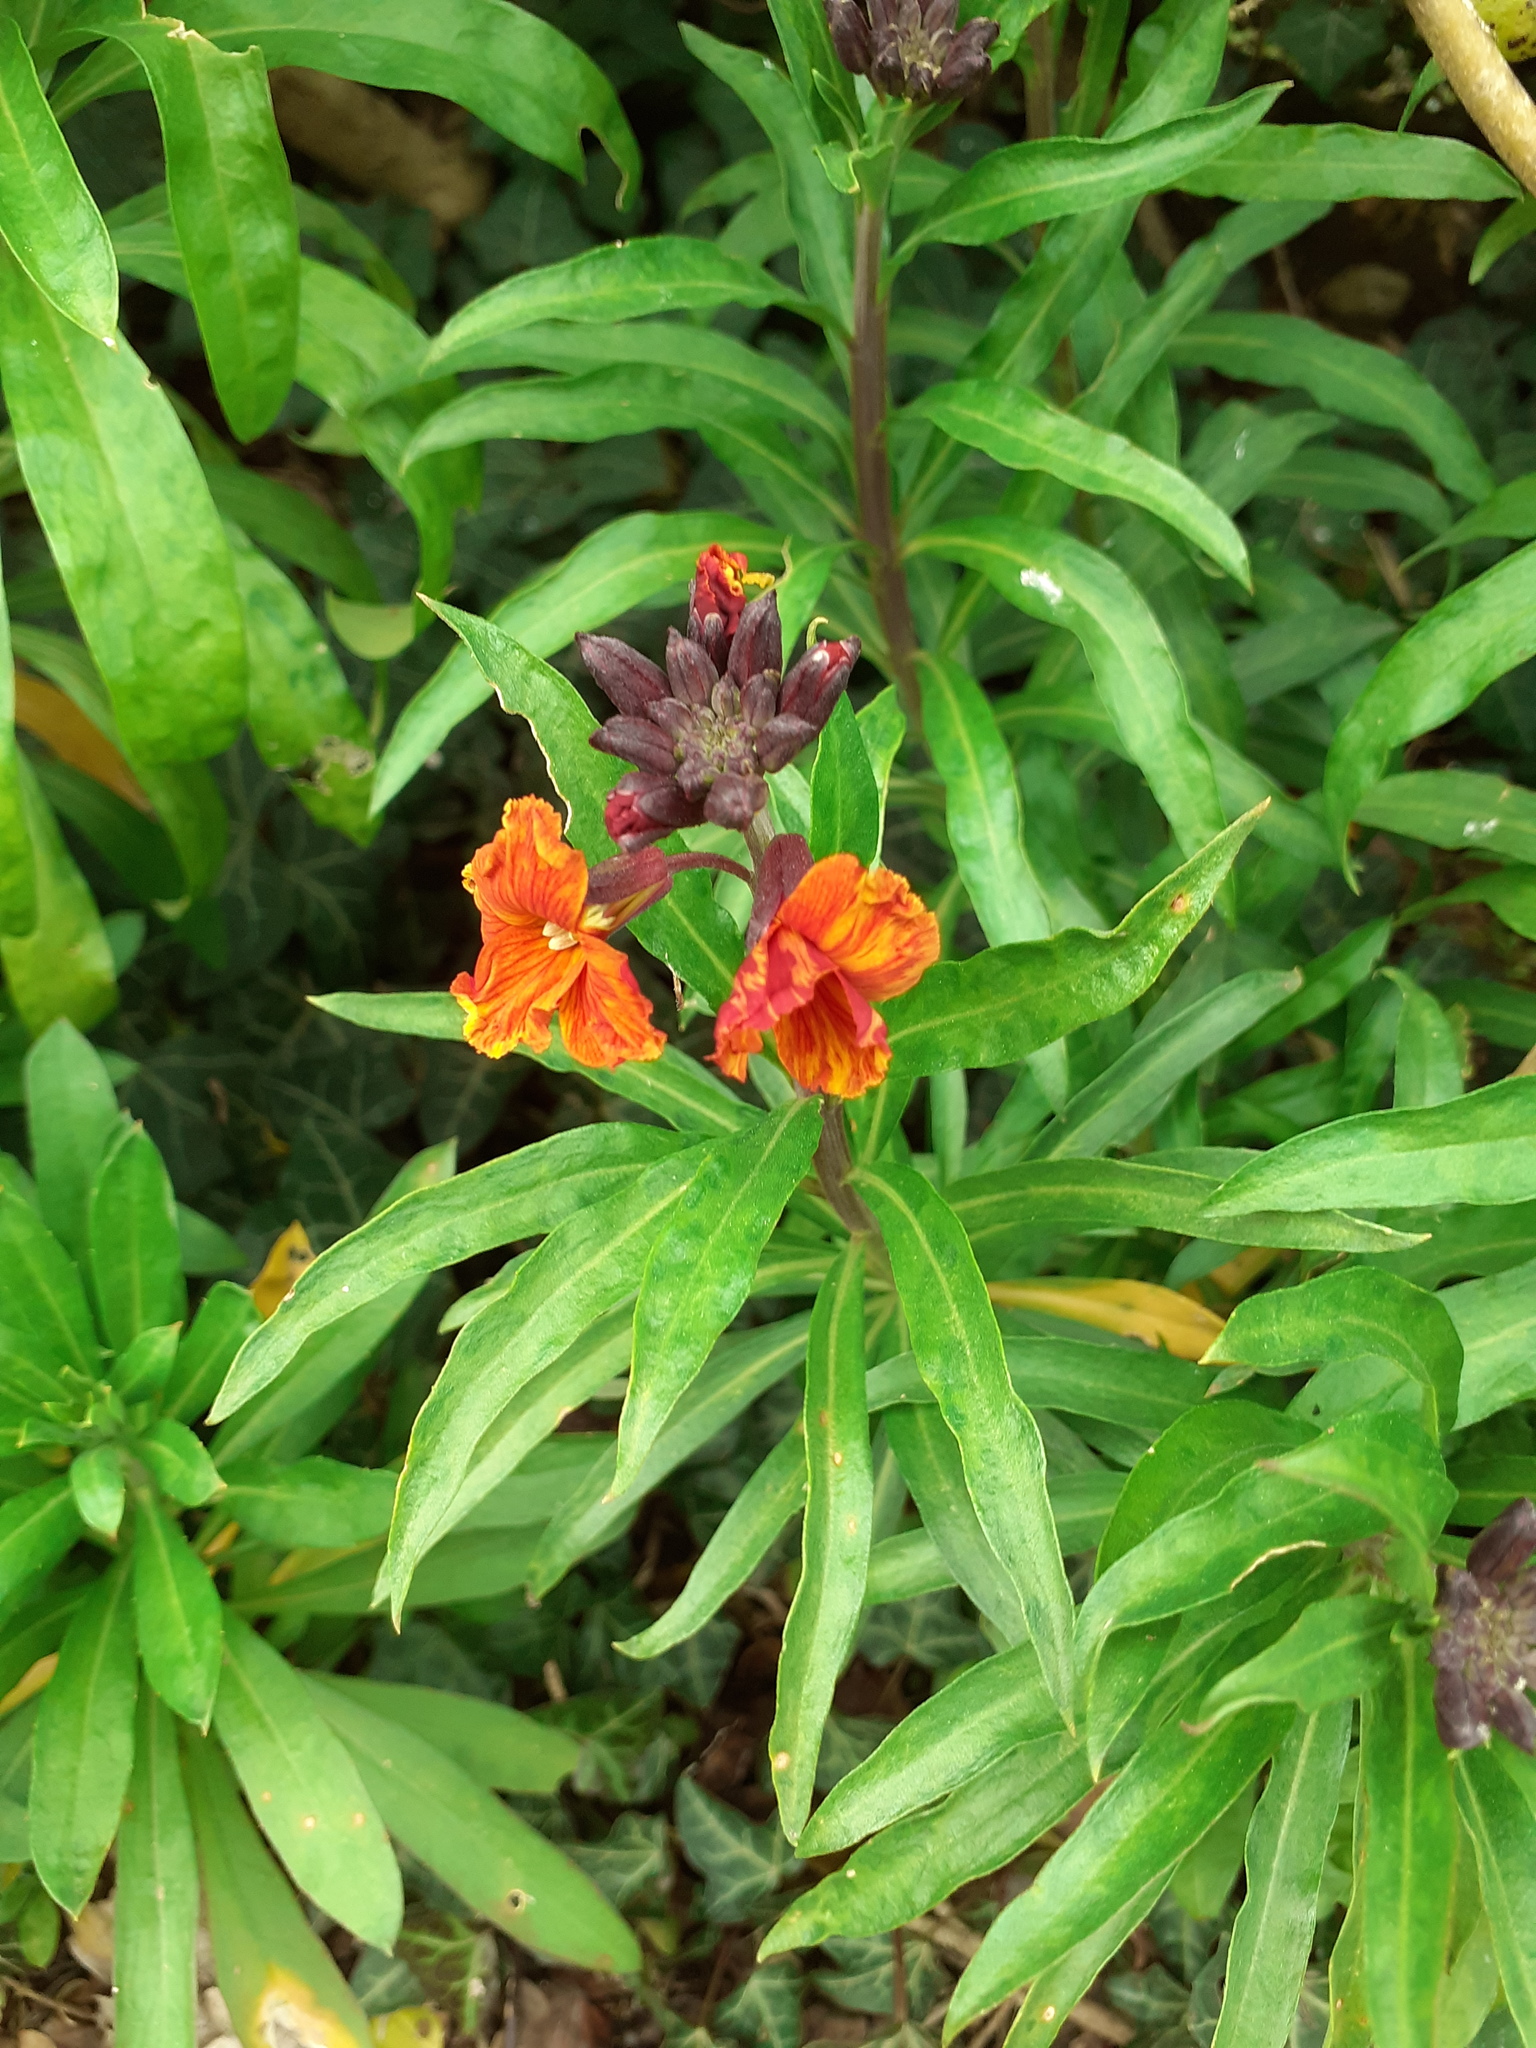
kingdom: Plantae
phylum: Tracheophyta
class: Magnoliopsida
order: Brassicales
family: Brassicaceae
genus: Erysimum
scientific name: Erysimum cheiri
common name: Wallflower
